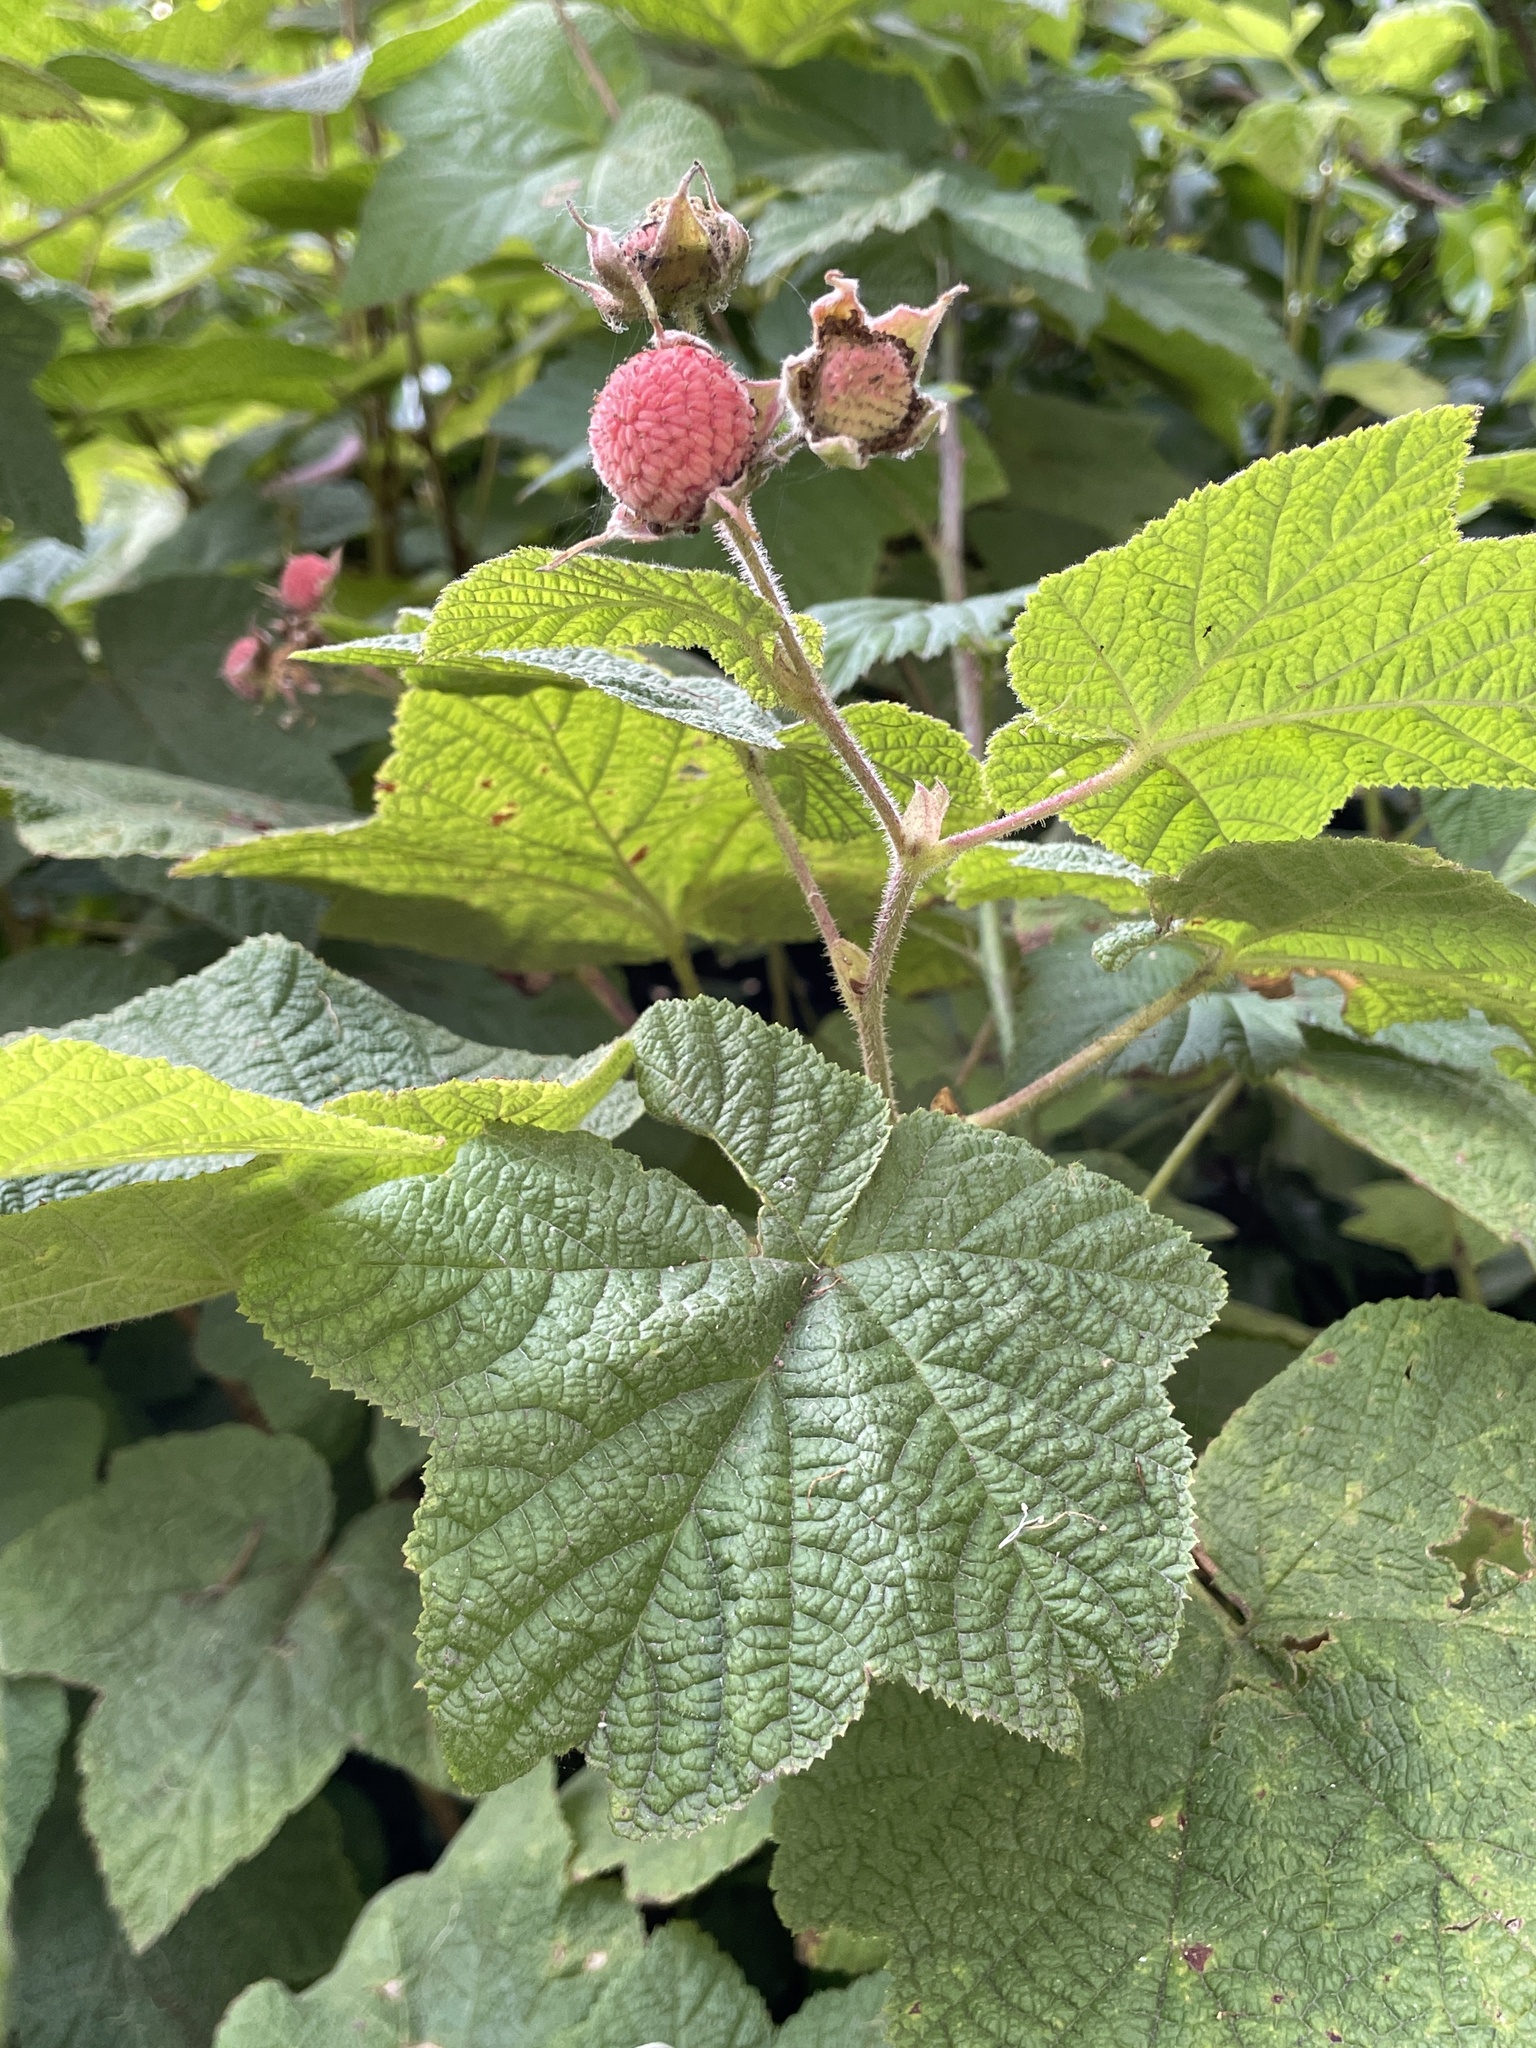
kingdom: Plantae
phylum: Tracheophyta
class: Magnoliopsida
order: Rosales
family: Rosaceae
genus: Rubus
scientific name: Rubus parviflorus
